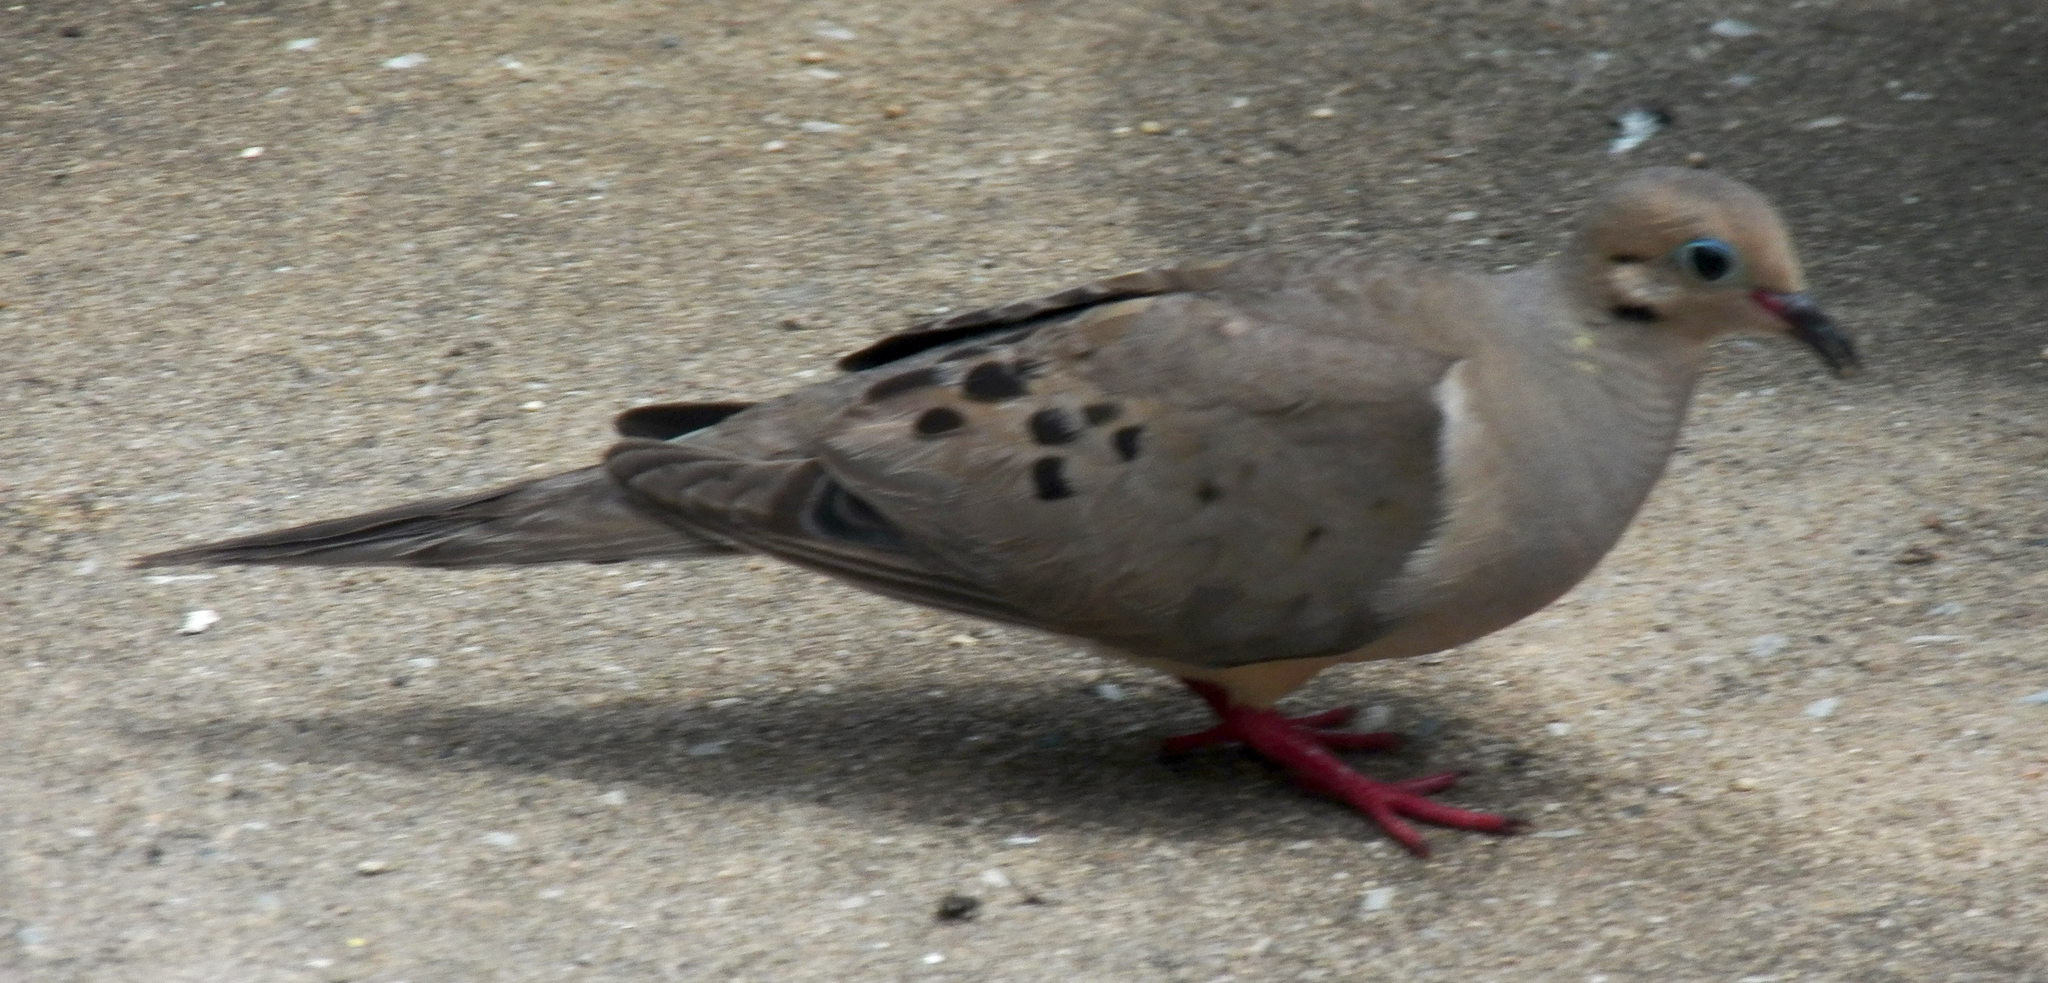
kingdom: Animalia
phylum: Chordata
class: Aves
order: Columbiformes
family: Columbidae
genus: Zenaida
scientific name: Zenaida macroura
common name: Mourning dove
